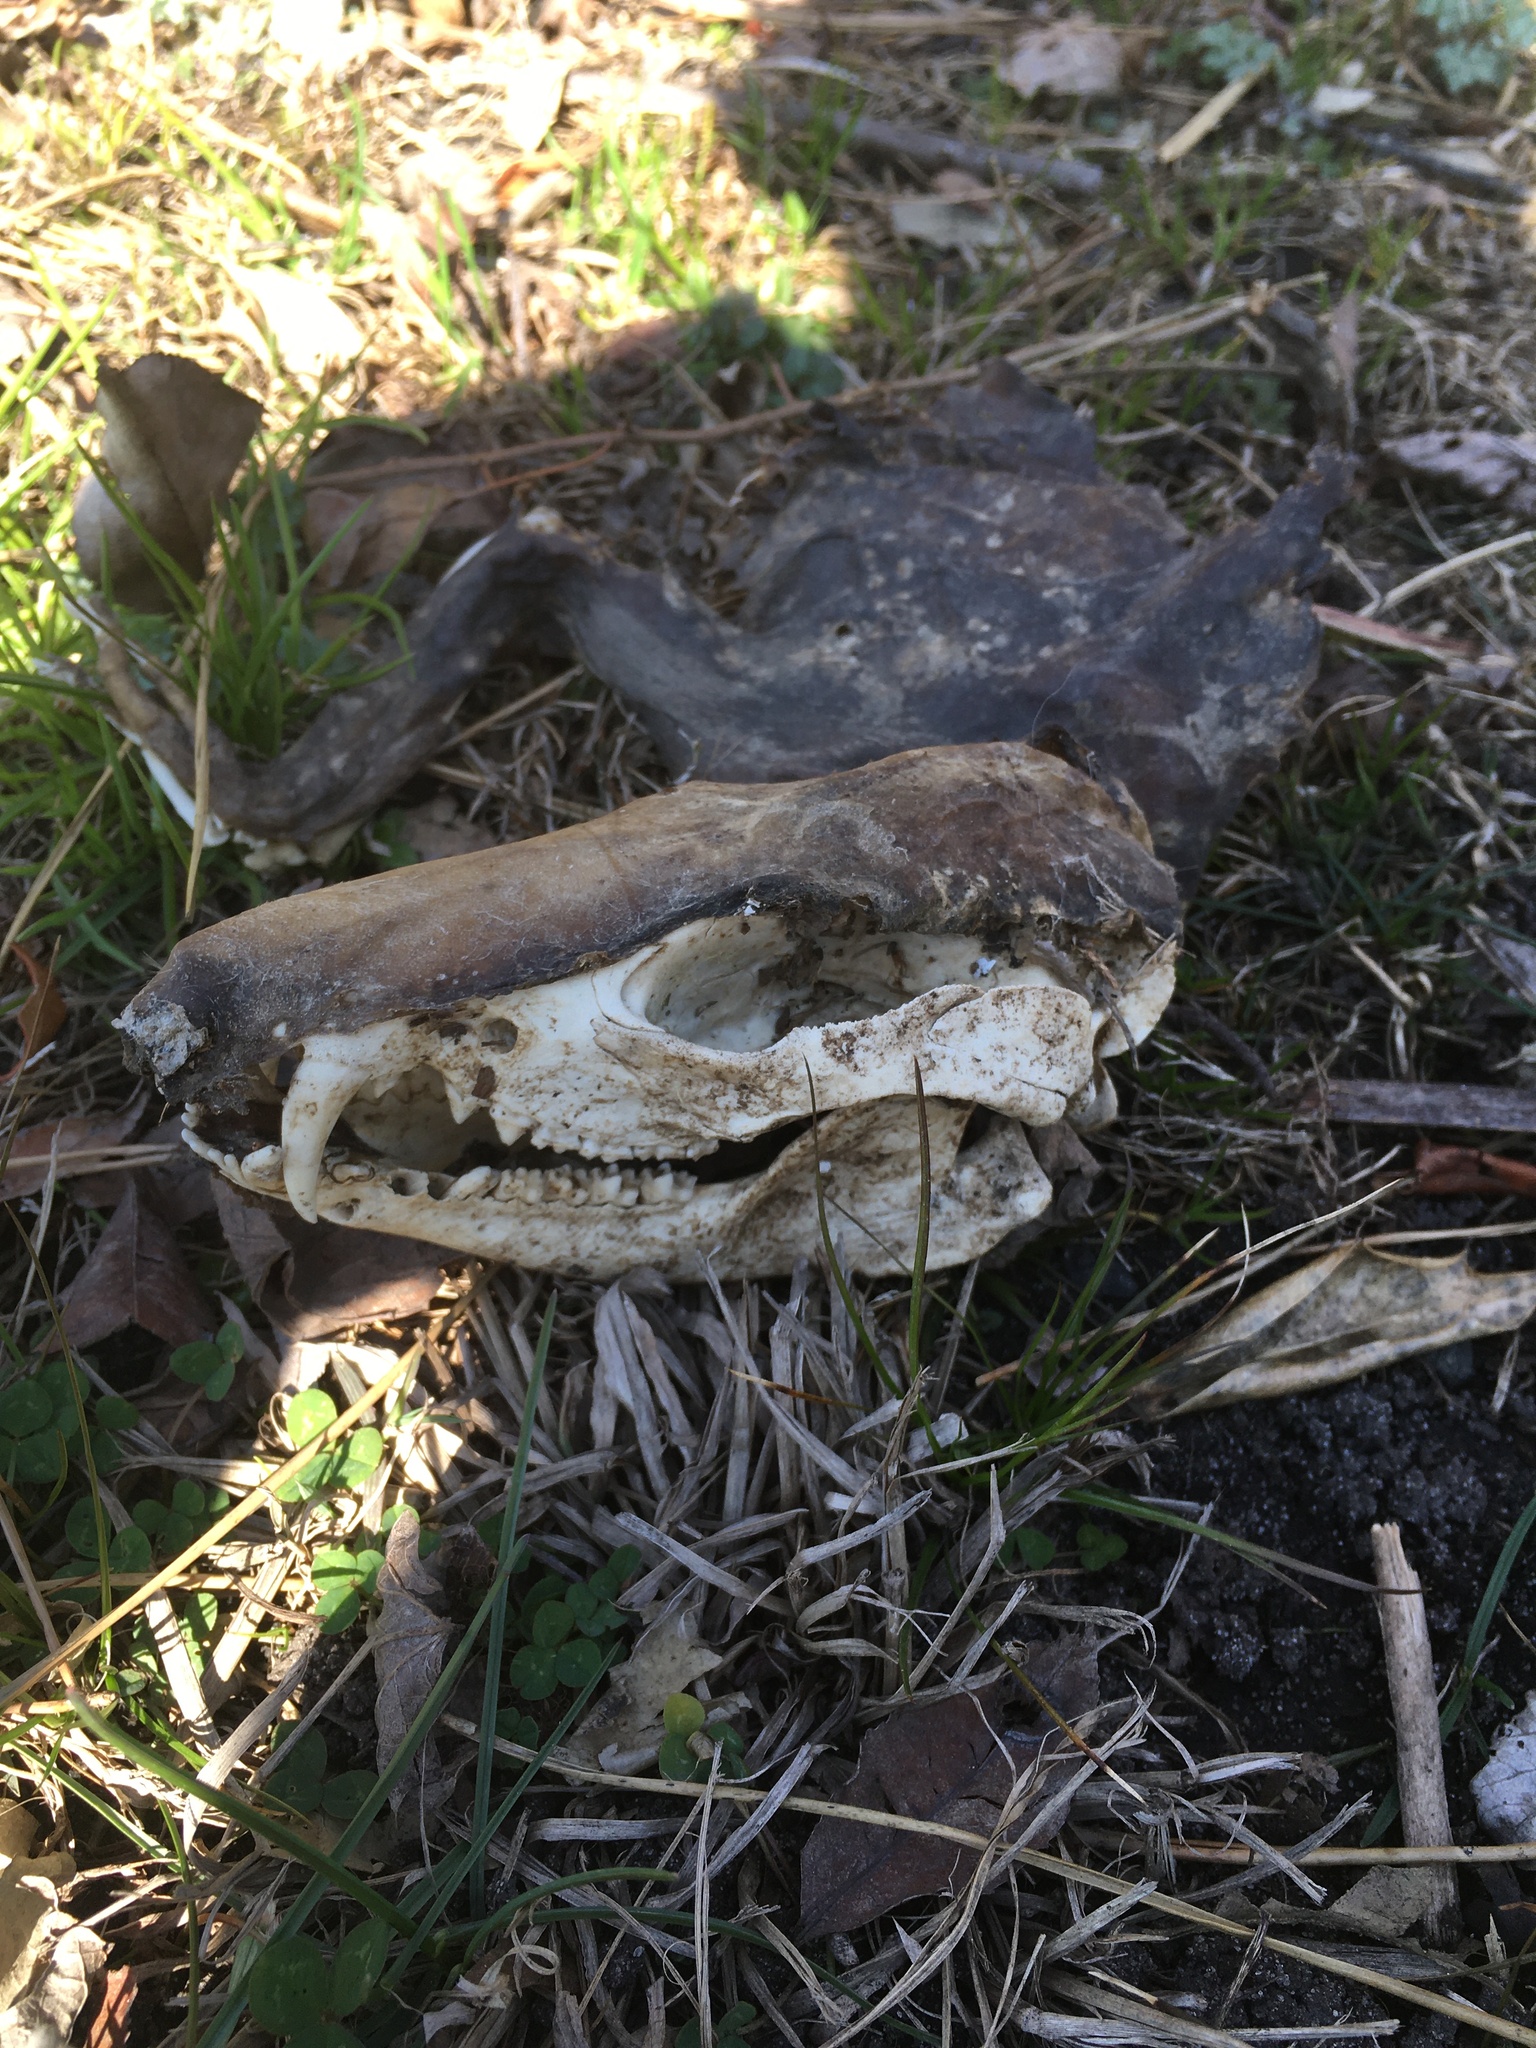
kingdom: Animalia
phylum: Chordata
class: Mammalia
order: Didelphimorphia
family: Didelphidae
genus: Didelphis
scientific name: Didelphis virginiana
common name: Virginia opossum
